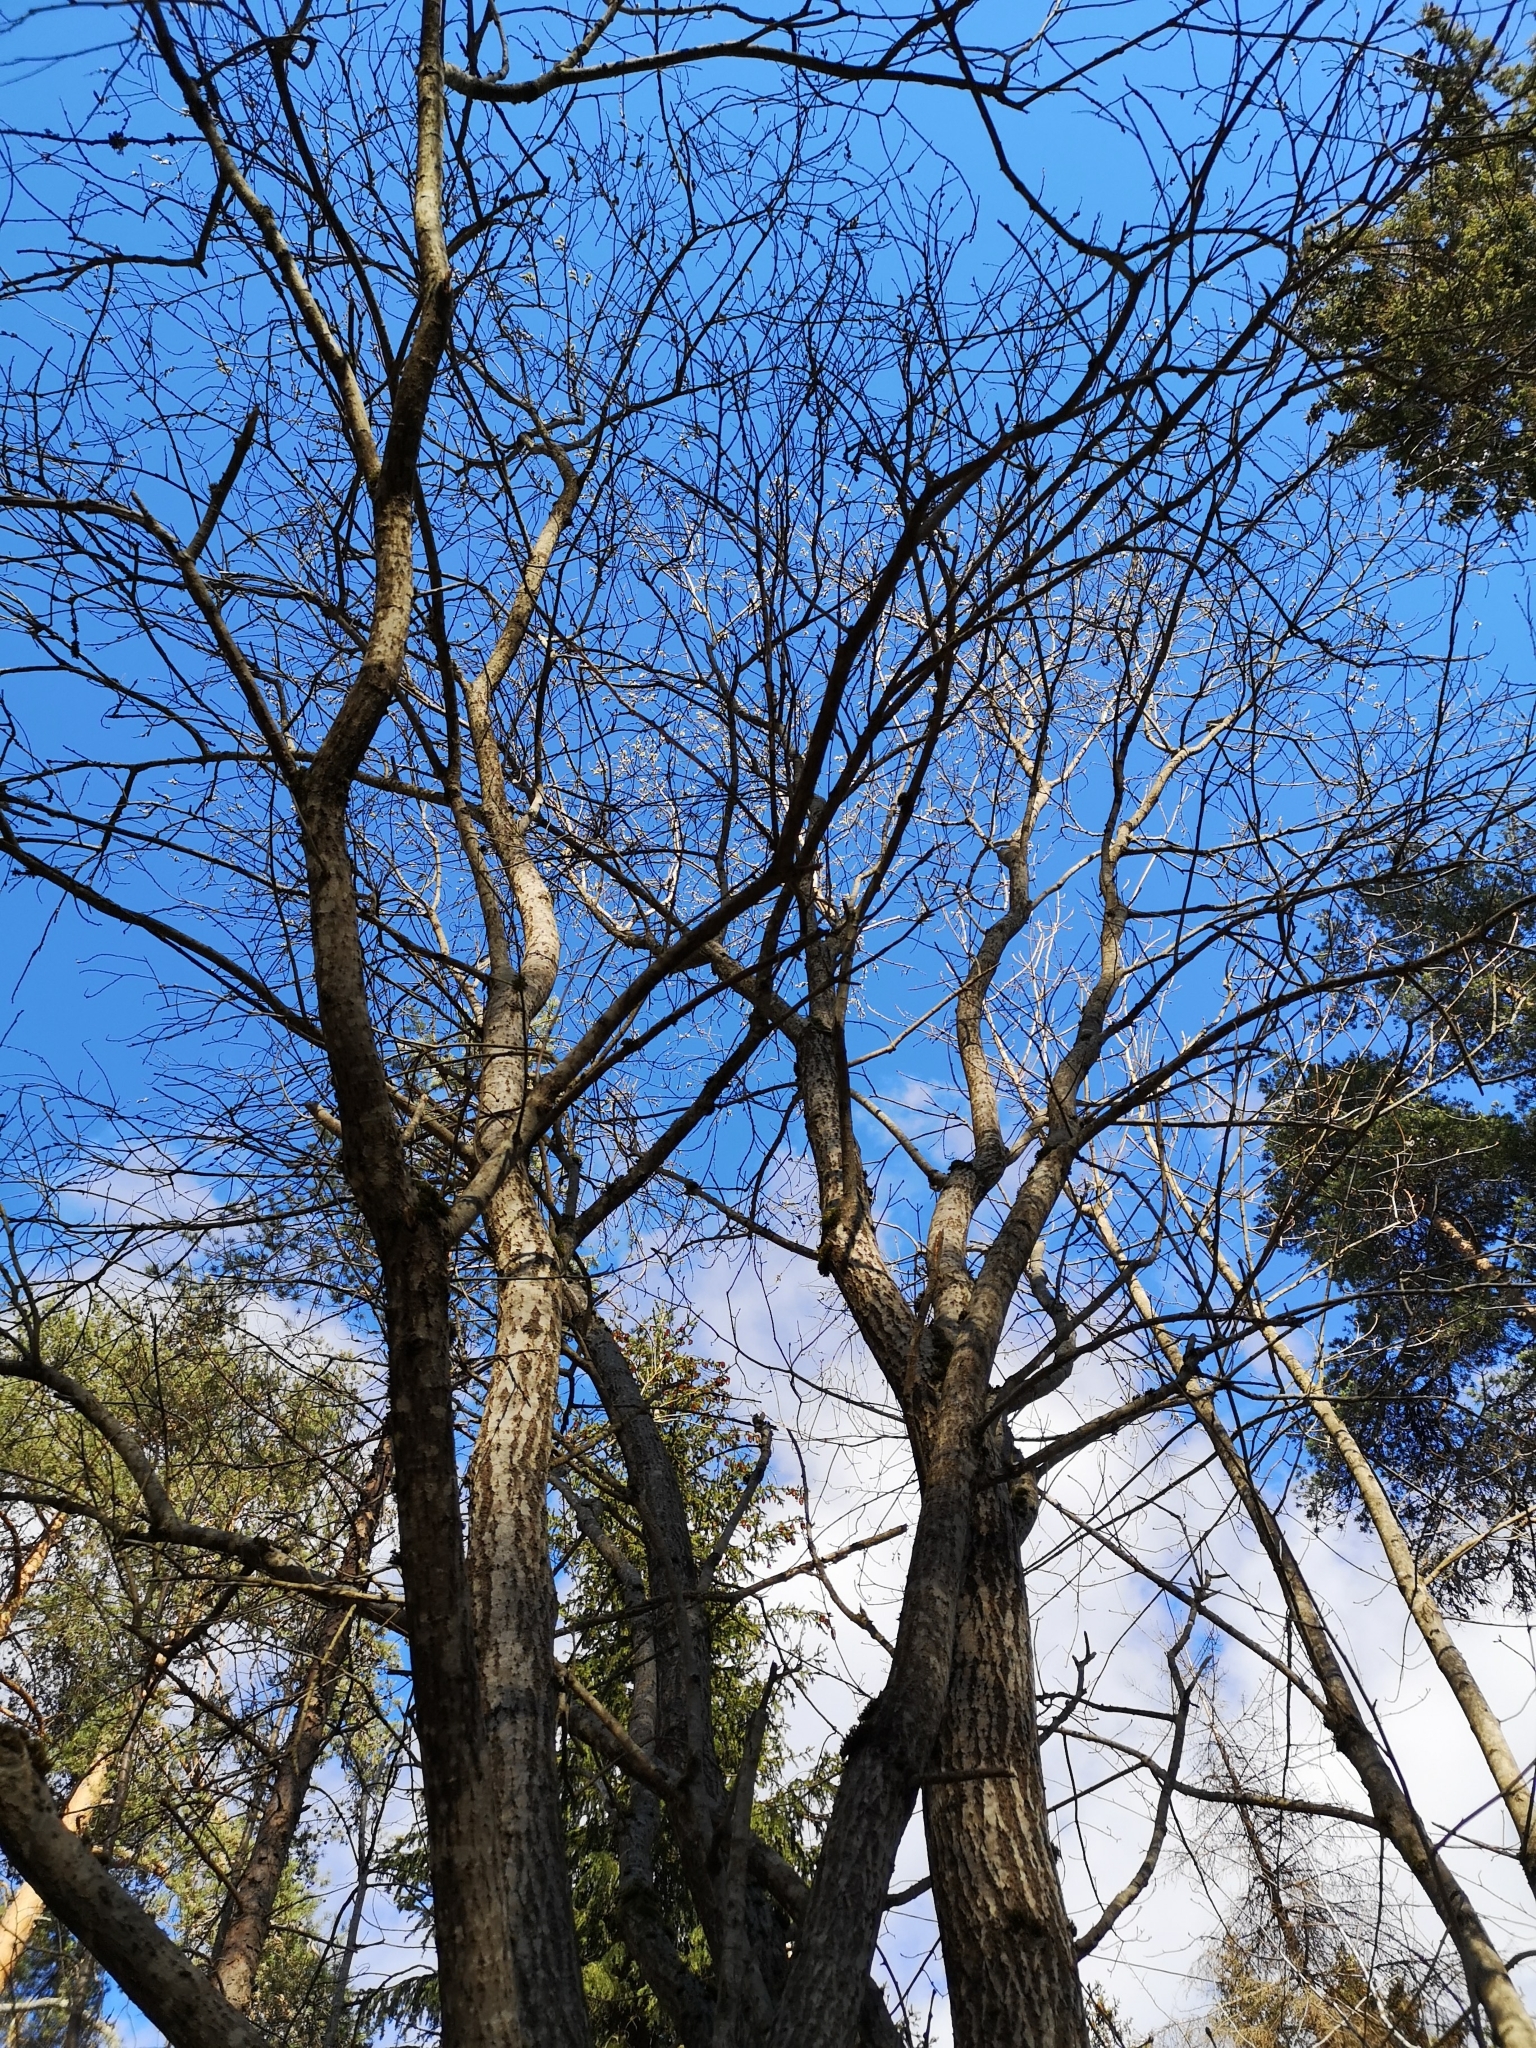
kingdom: Plantae
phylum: Tracheophyta
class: Magnoliopsida
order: Malpighiales
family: Salicaceae
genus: Salix
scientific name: Salix caprea
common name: Goat willow
